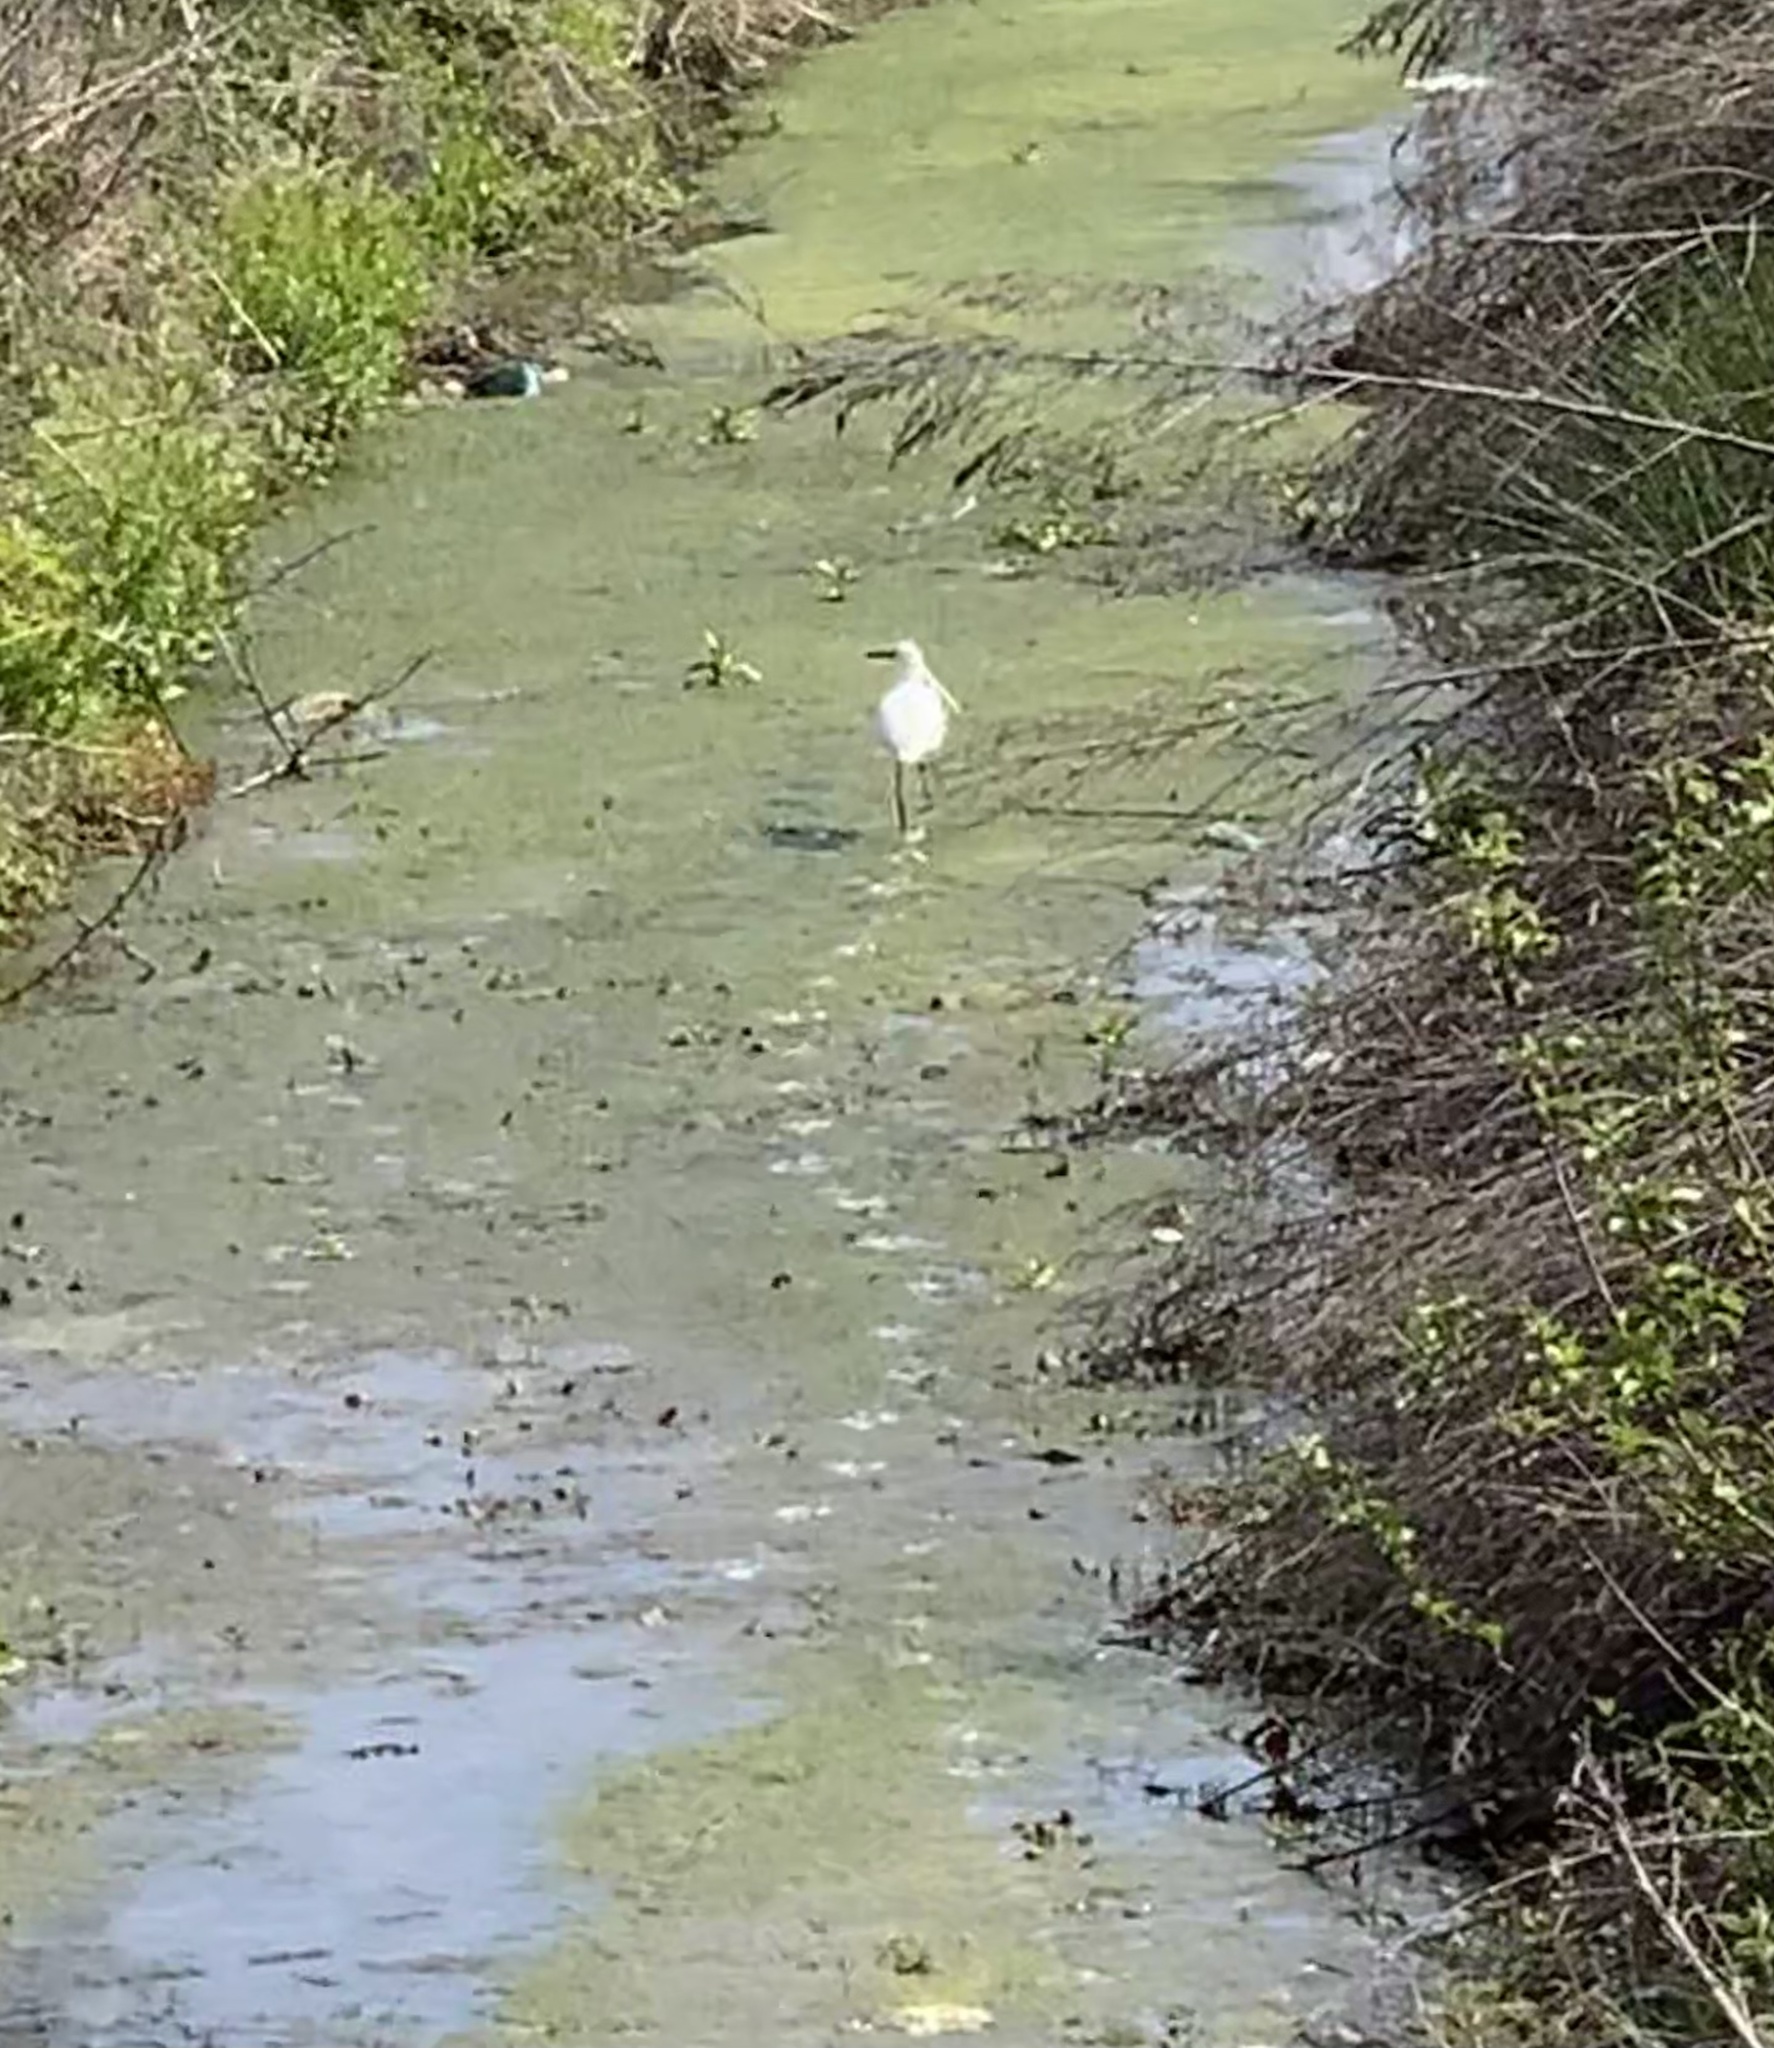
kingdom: Animalia
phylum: Chordata
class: Aves
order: Pelecaniformes
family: Ardeidae
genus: Egretta
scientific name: Egretta garzetta
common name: Little egret
